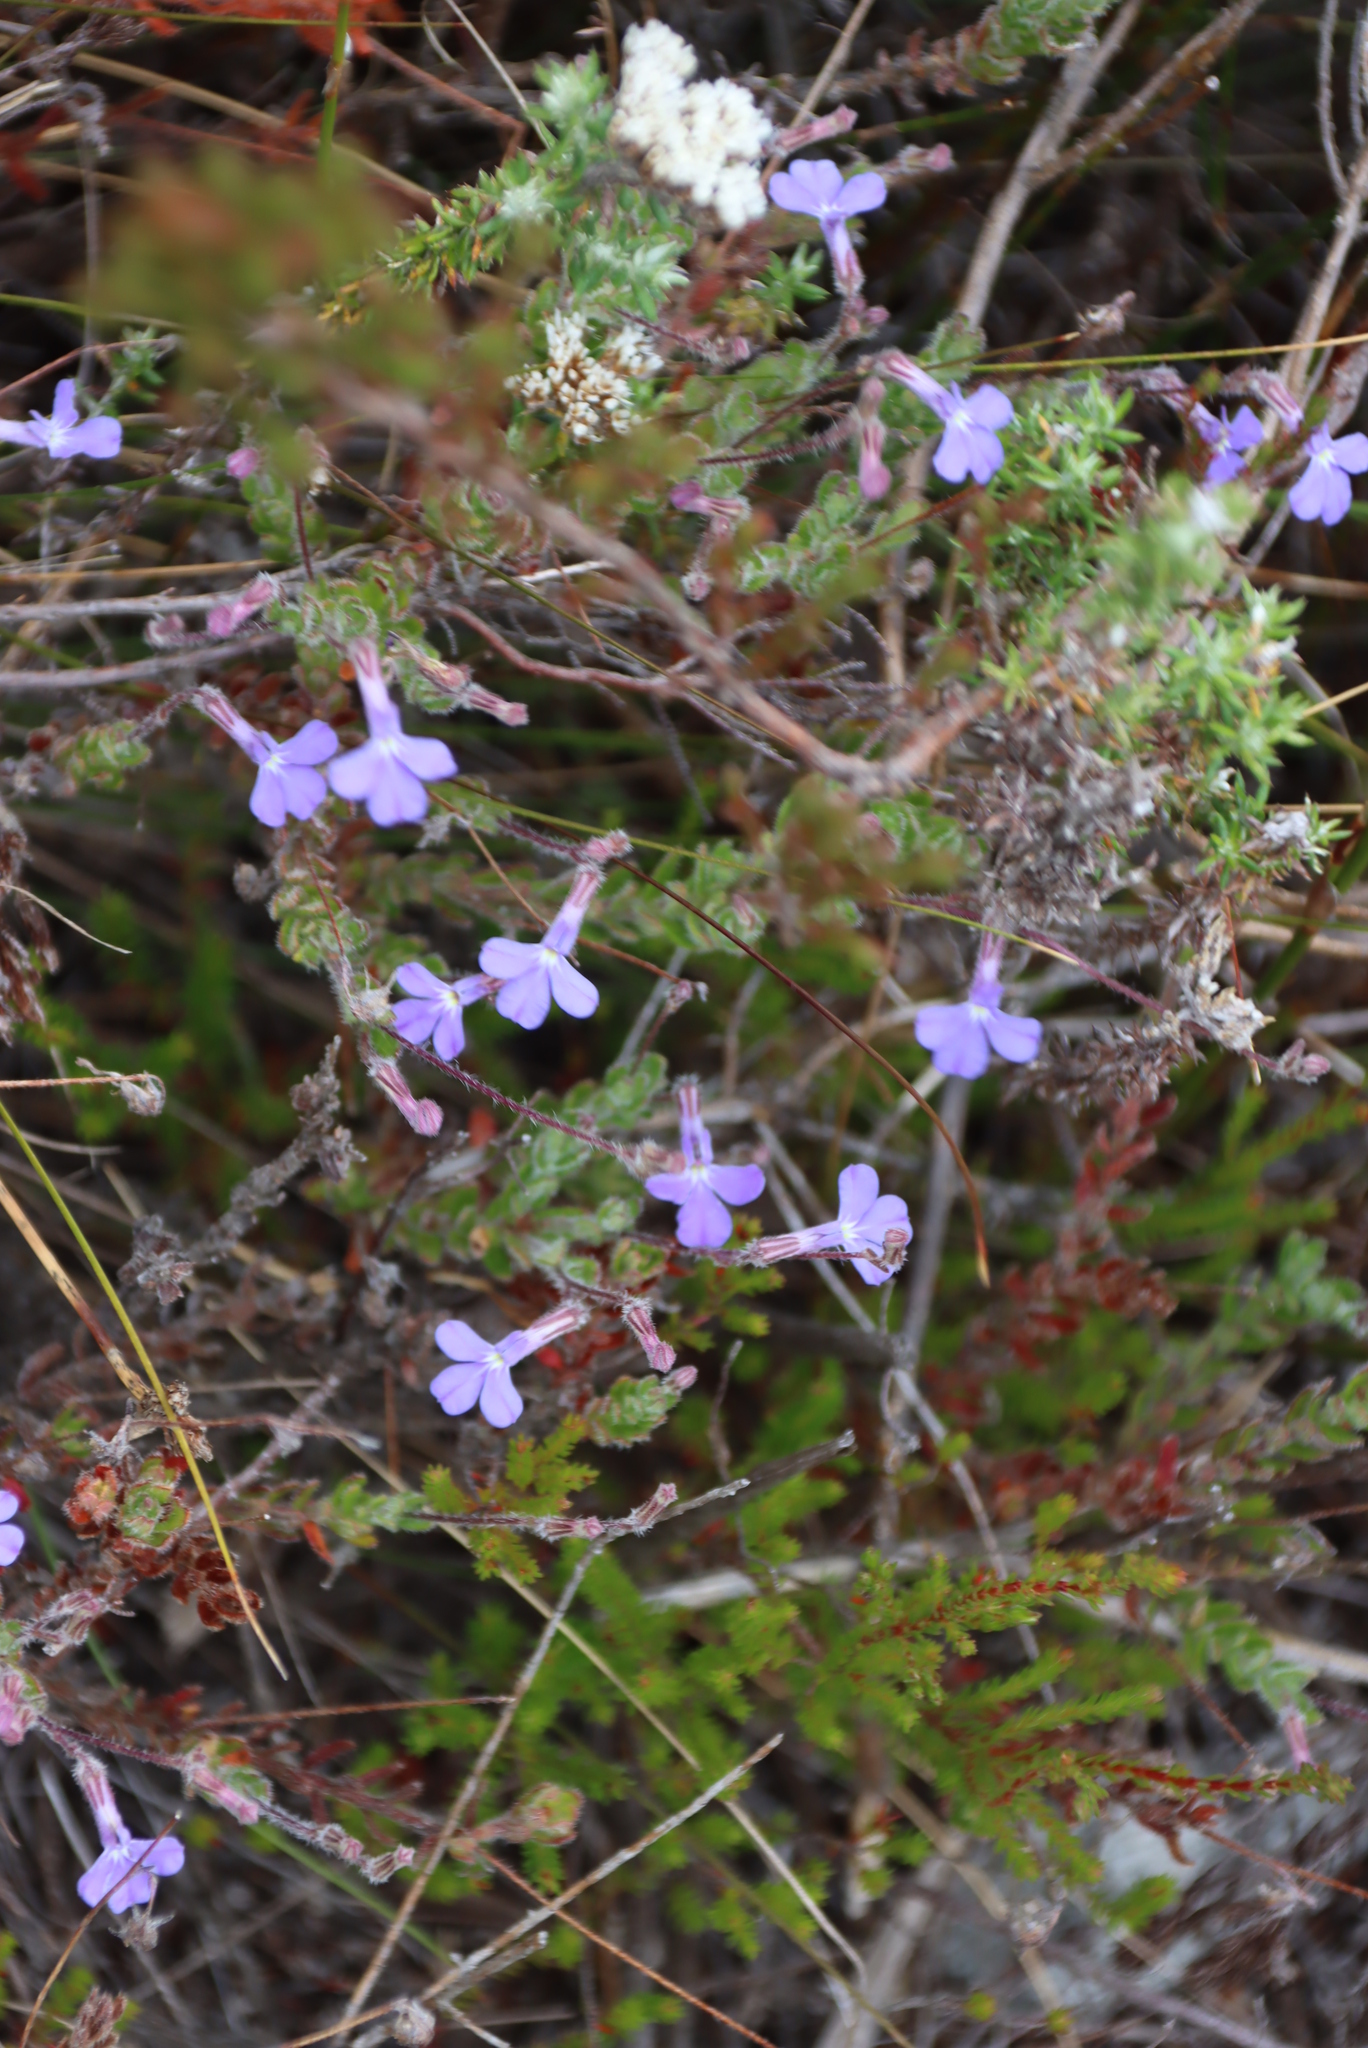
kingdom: Plantae
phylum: Tracheophyta
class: Magnoliopsida
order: Asterales
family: Campanulaceae
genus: Lobelia
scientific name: Lobelia neglecta
